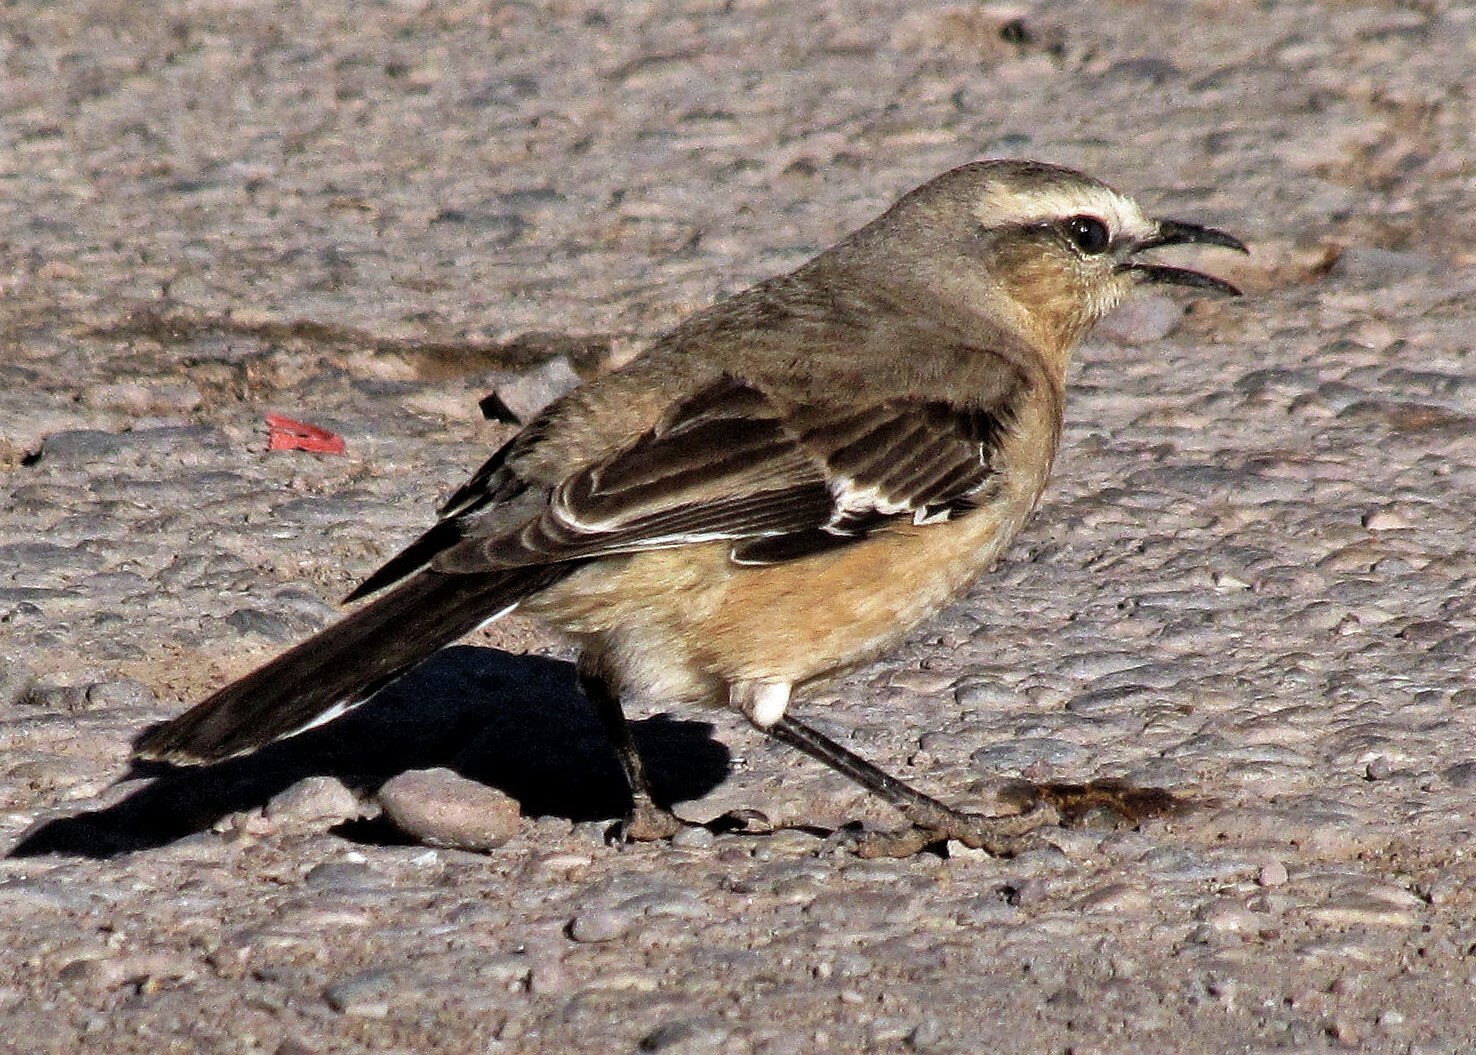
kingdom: Animalia
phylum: Chordata
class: Aves
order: Passeriformes
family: Mimidae
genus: Mimus
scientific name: Mimus patagonicus
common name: Patagonian mockingbird
